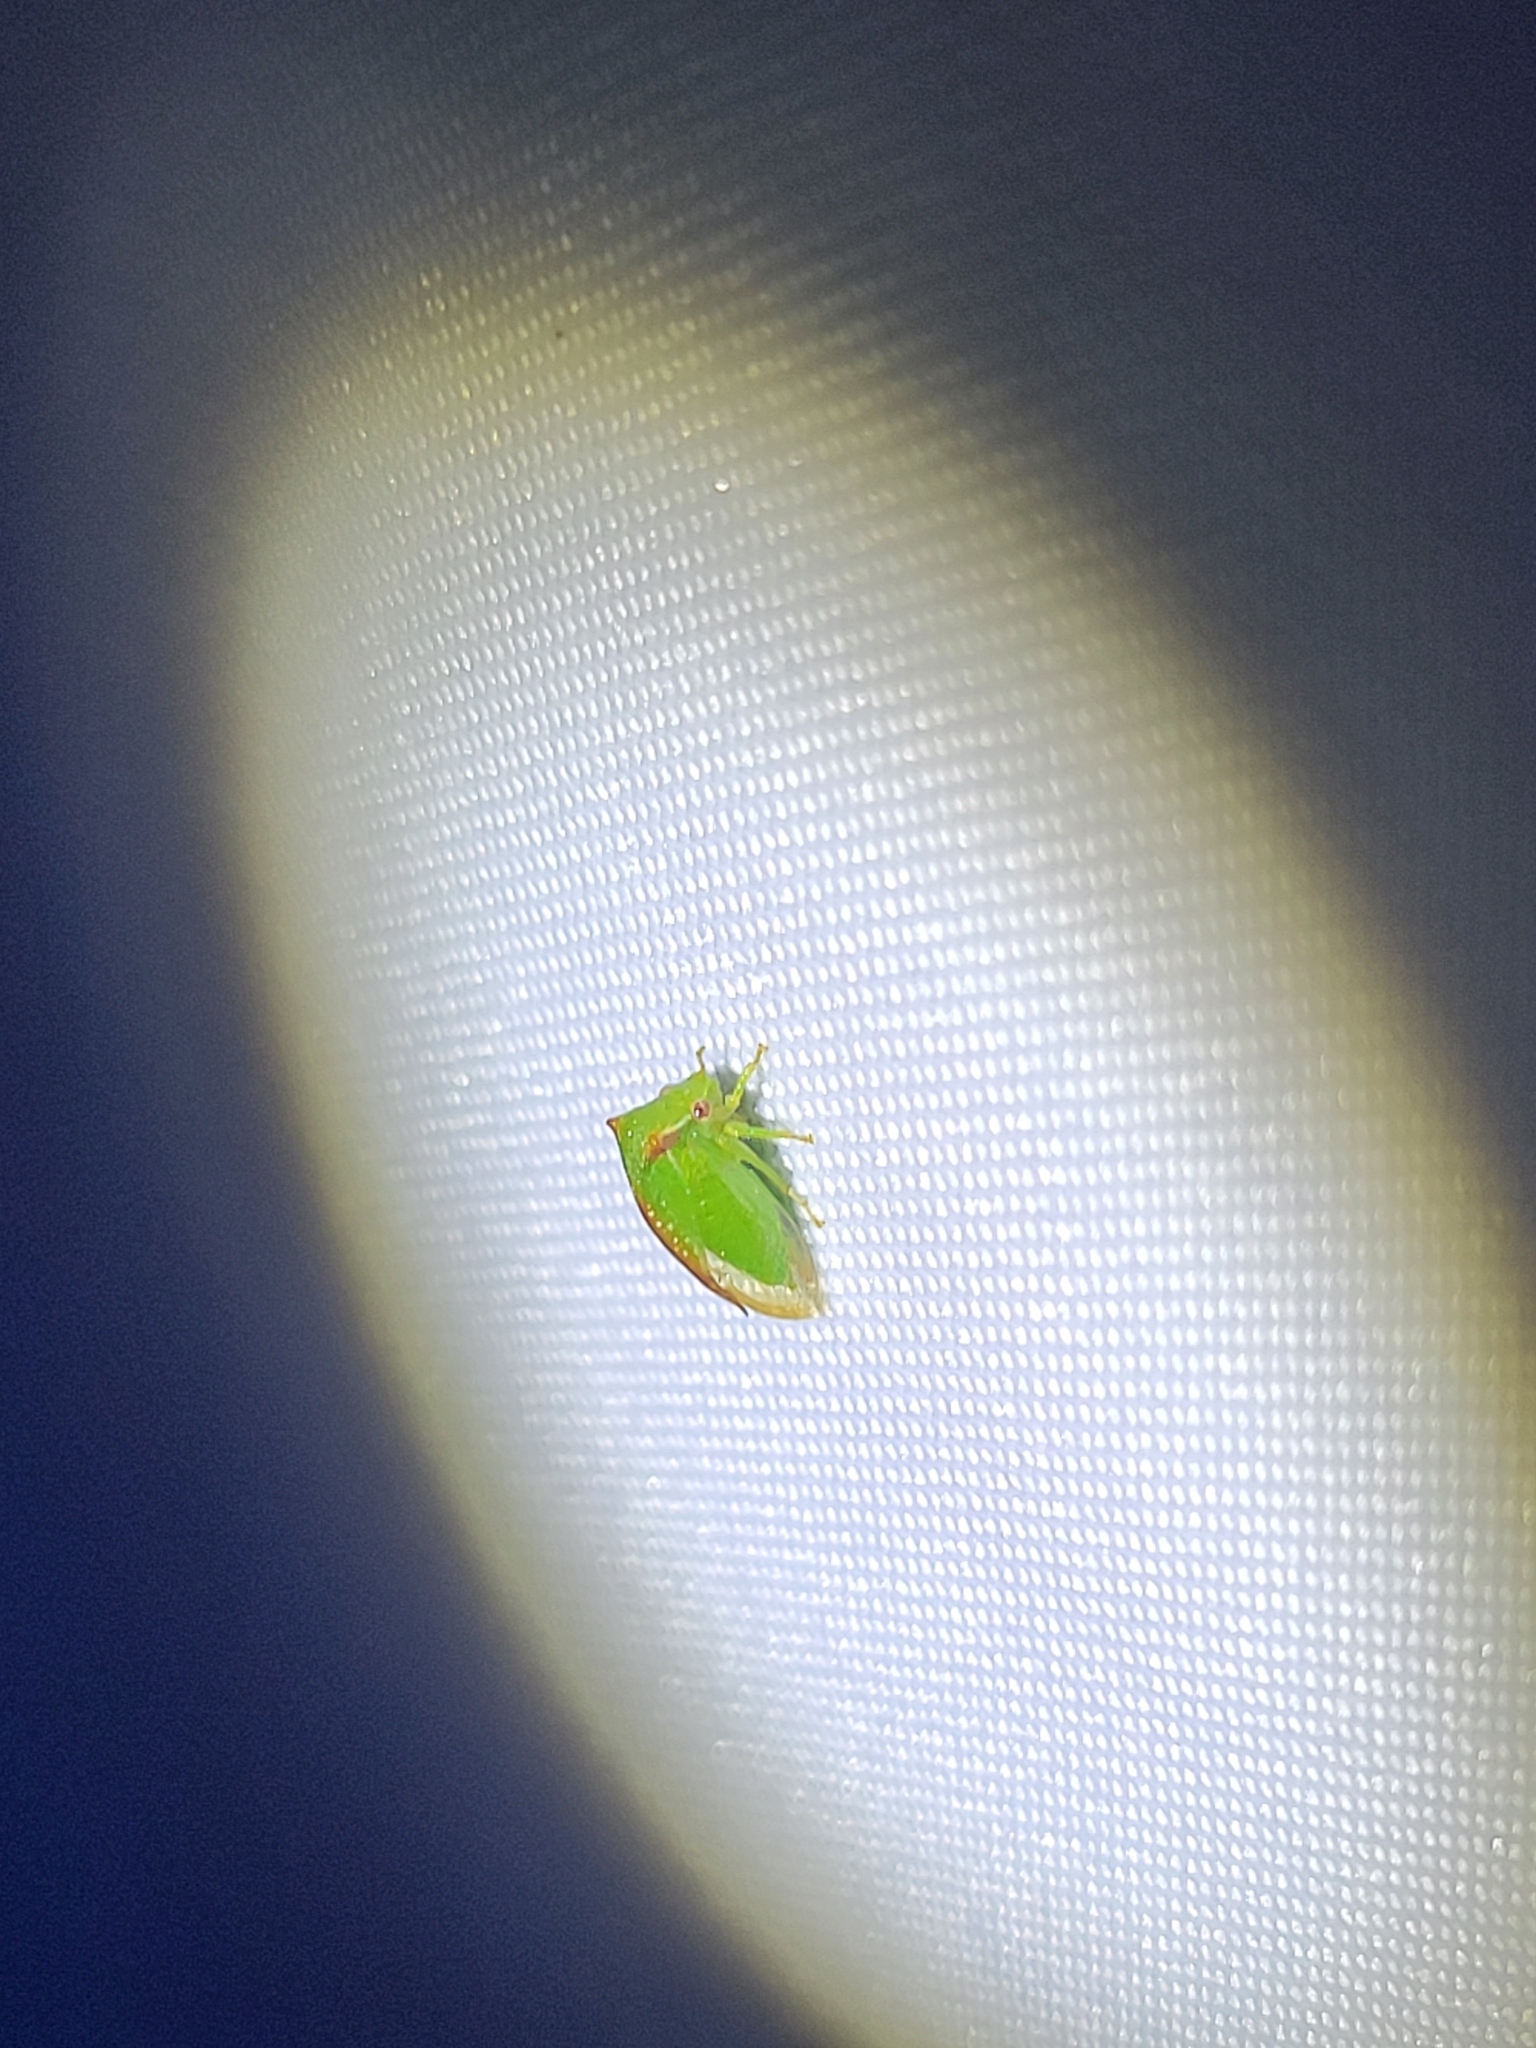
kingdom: Animalia
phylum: Arthropoda
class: Insecta
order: Hemiptera
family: Membracidae
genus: Stictocephala
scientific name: Stictocephala militaris
